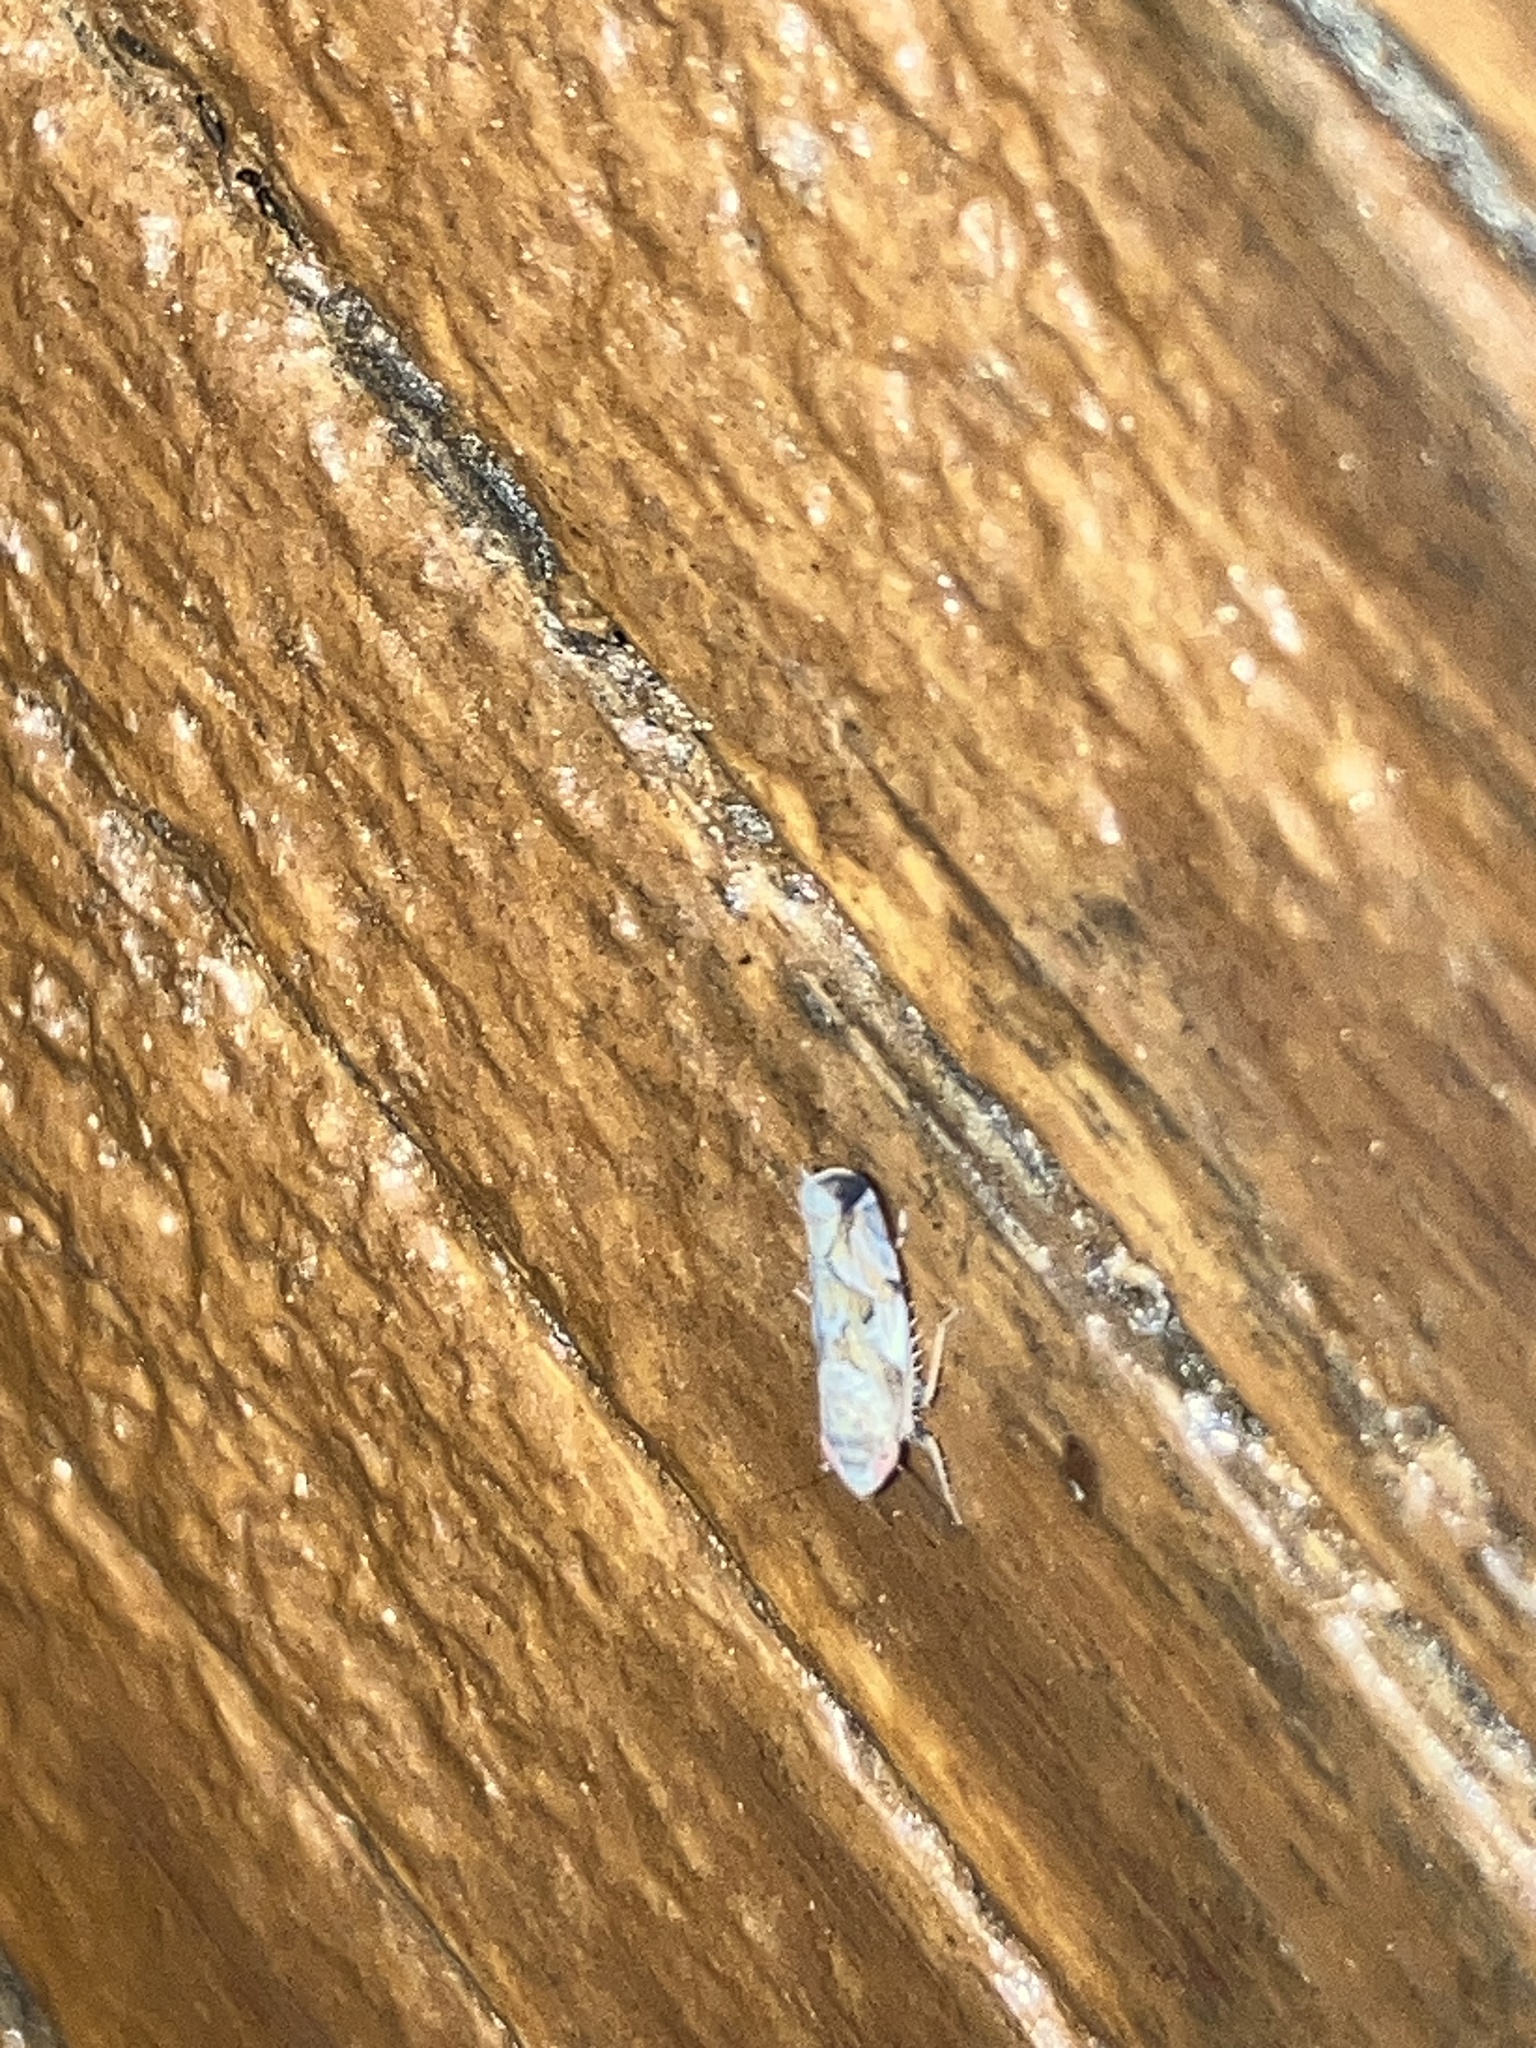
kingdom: Animalia
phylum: Arthropoda
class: Insecta
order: Hemiptera
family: Cicadellidae
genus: Sanctanus
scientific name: Sanctanus
